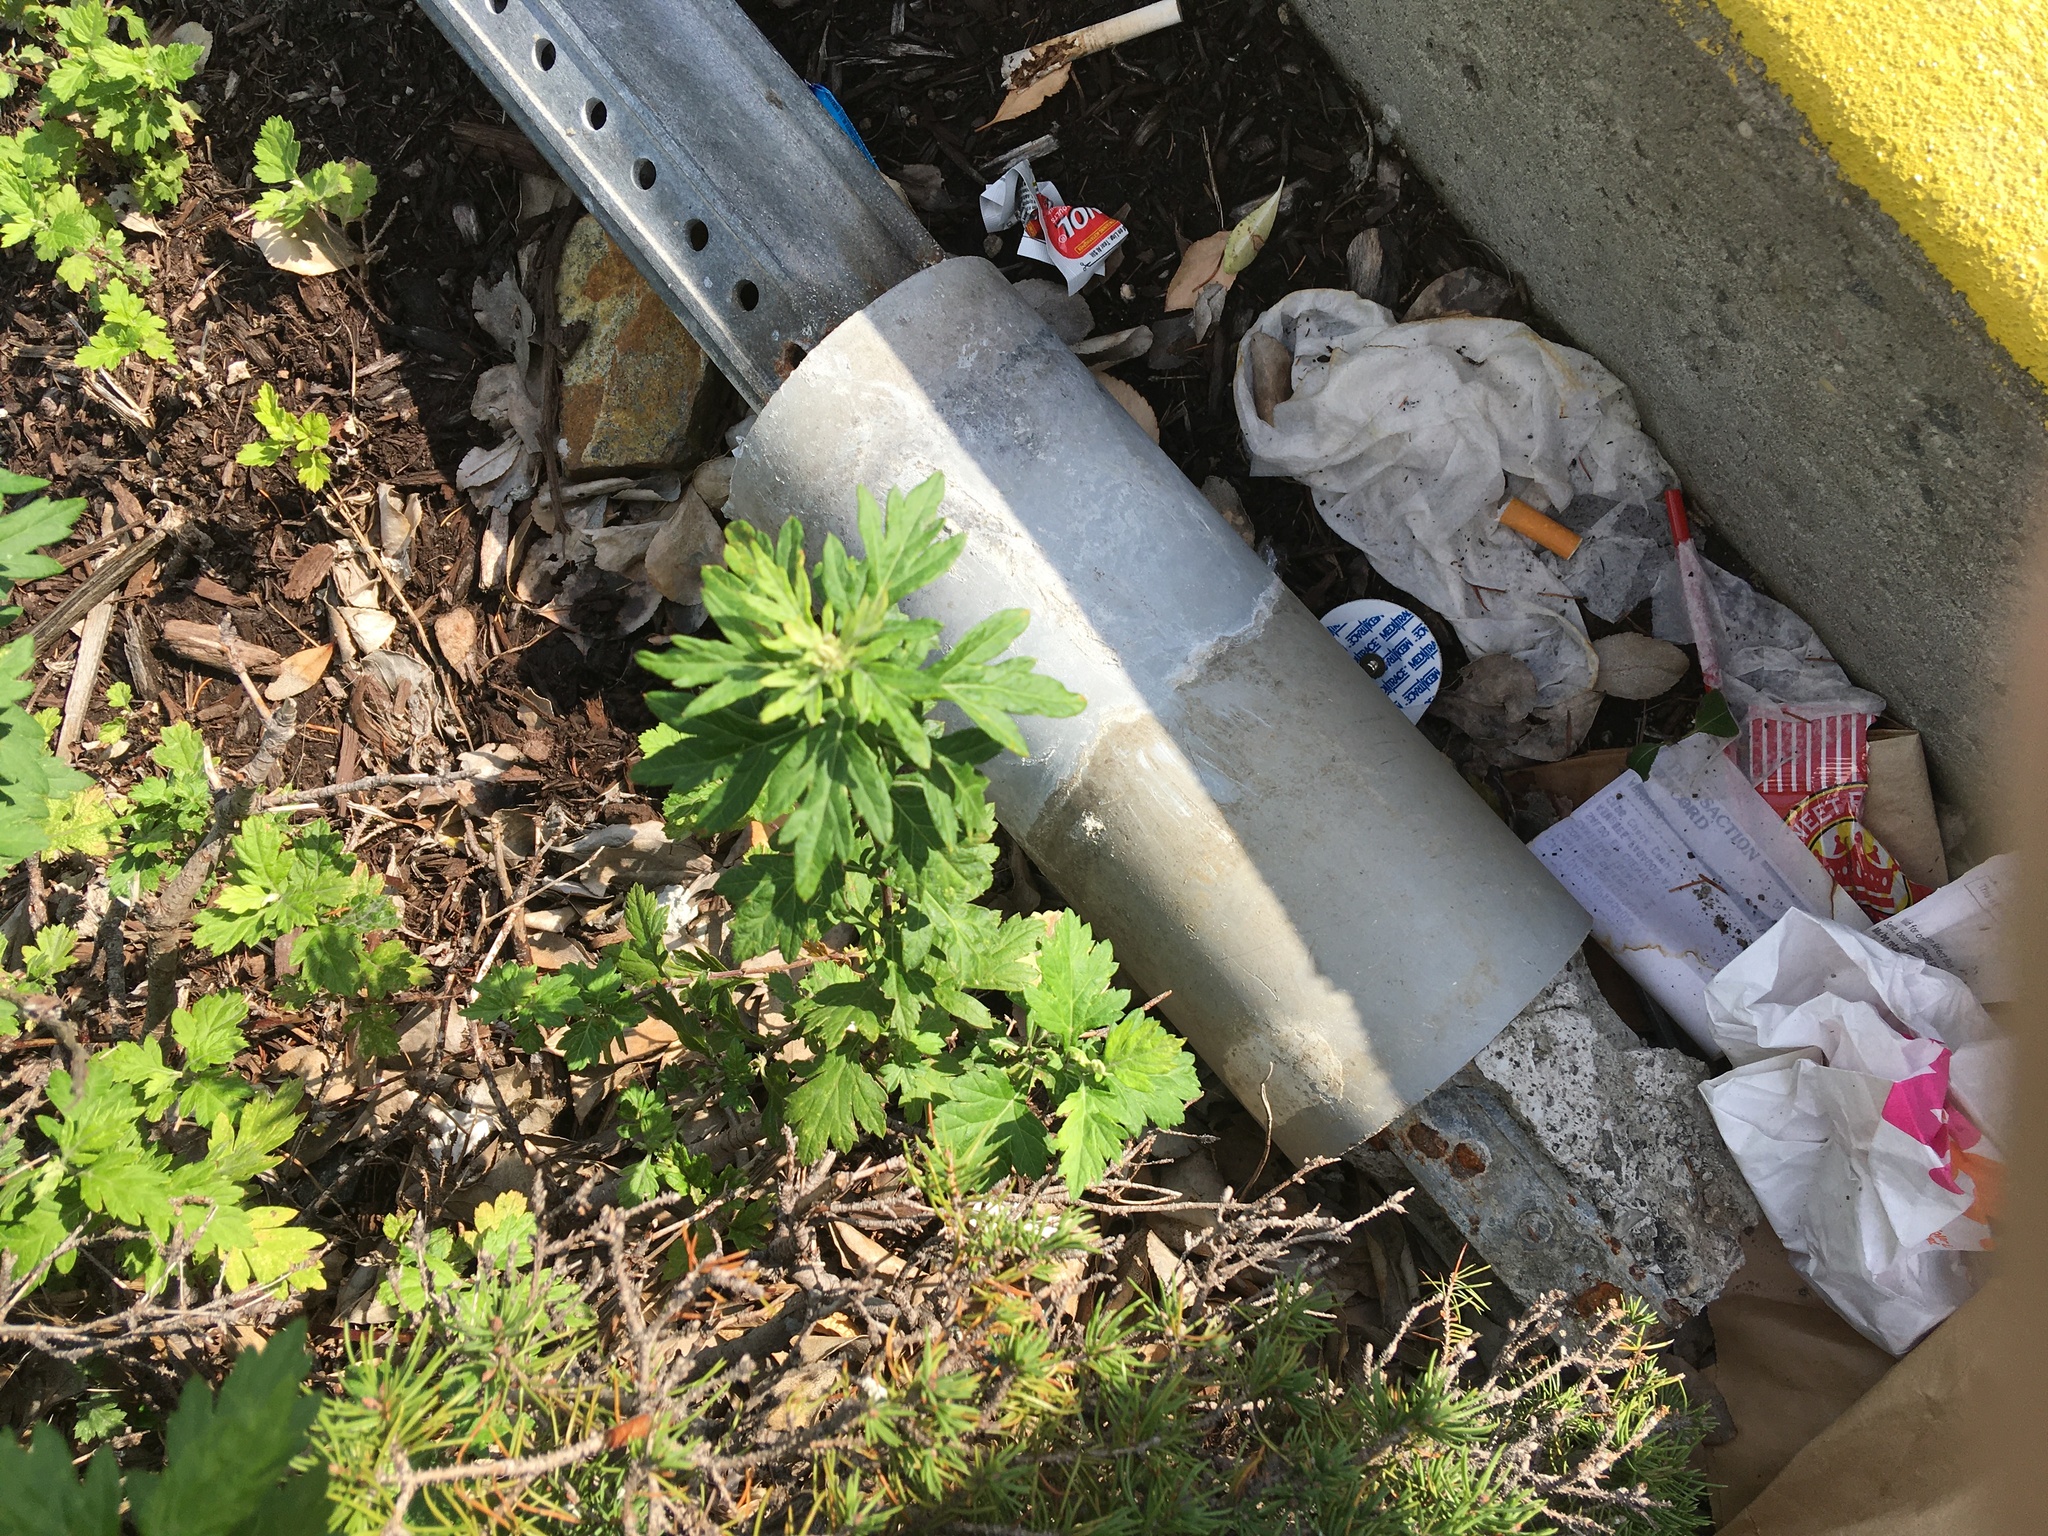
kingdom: Plantae
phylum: Tracheophyta
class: Magnoliopsida
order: Asterales
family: Asteraceae
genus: Artemisia
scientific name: Artemisia vulgaris
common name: Mugwort
